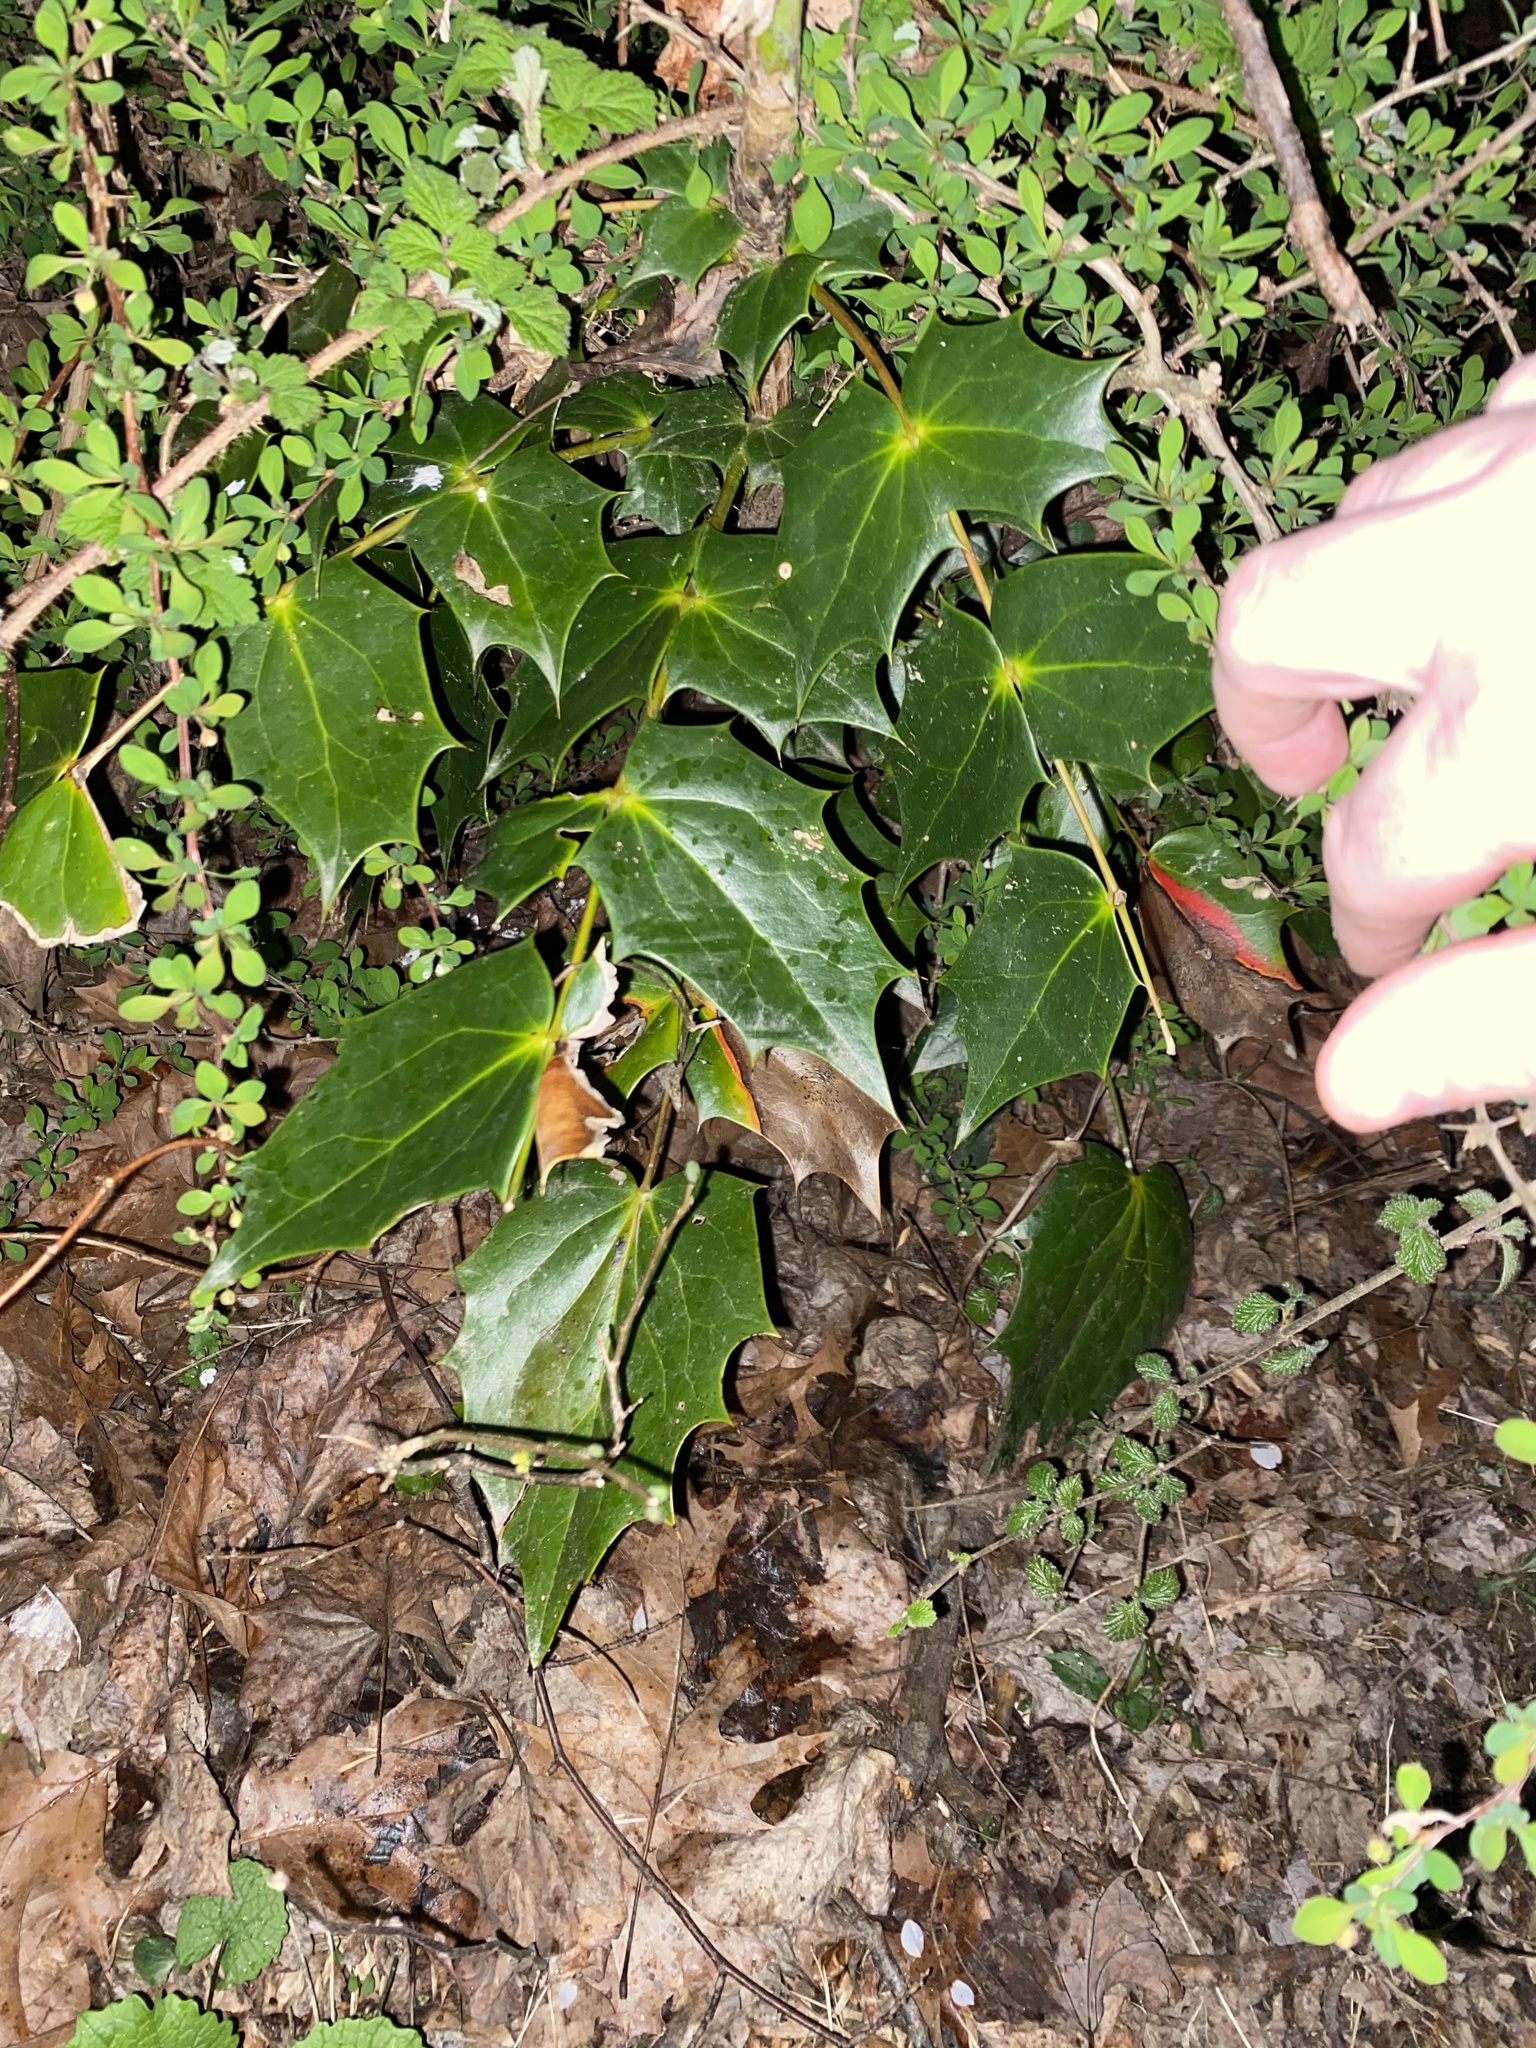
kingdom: Plantae
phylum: Tracheophyta
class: Magnoliopsida
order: Ranunculales
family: Berberidaceae
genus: Mahonia
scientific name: Mahonia bealei
